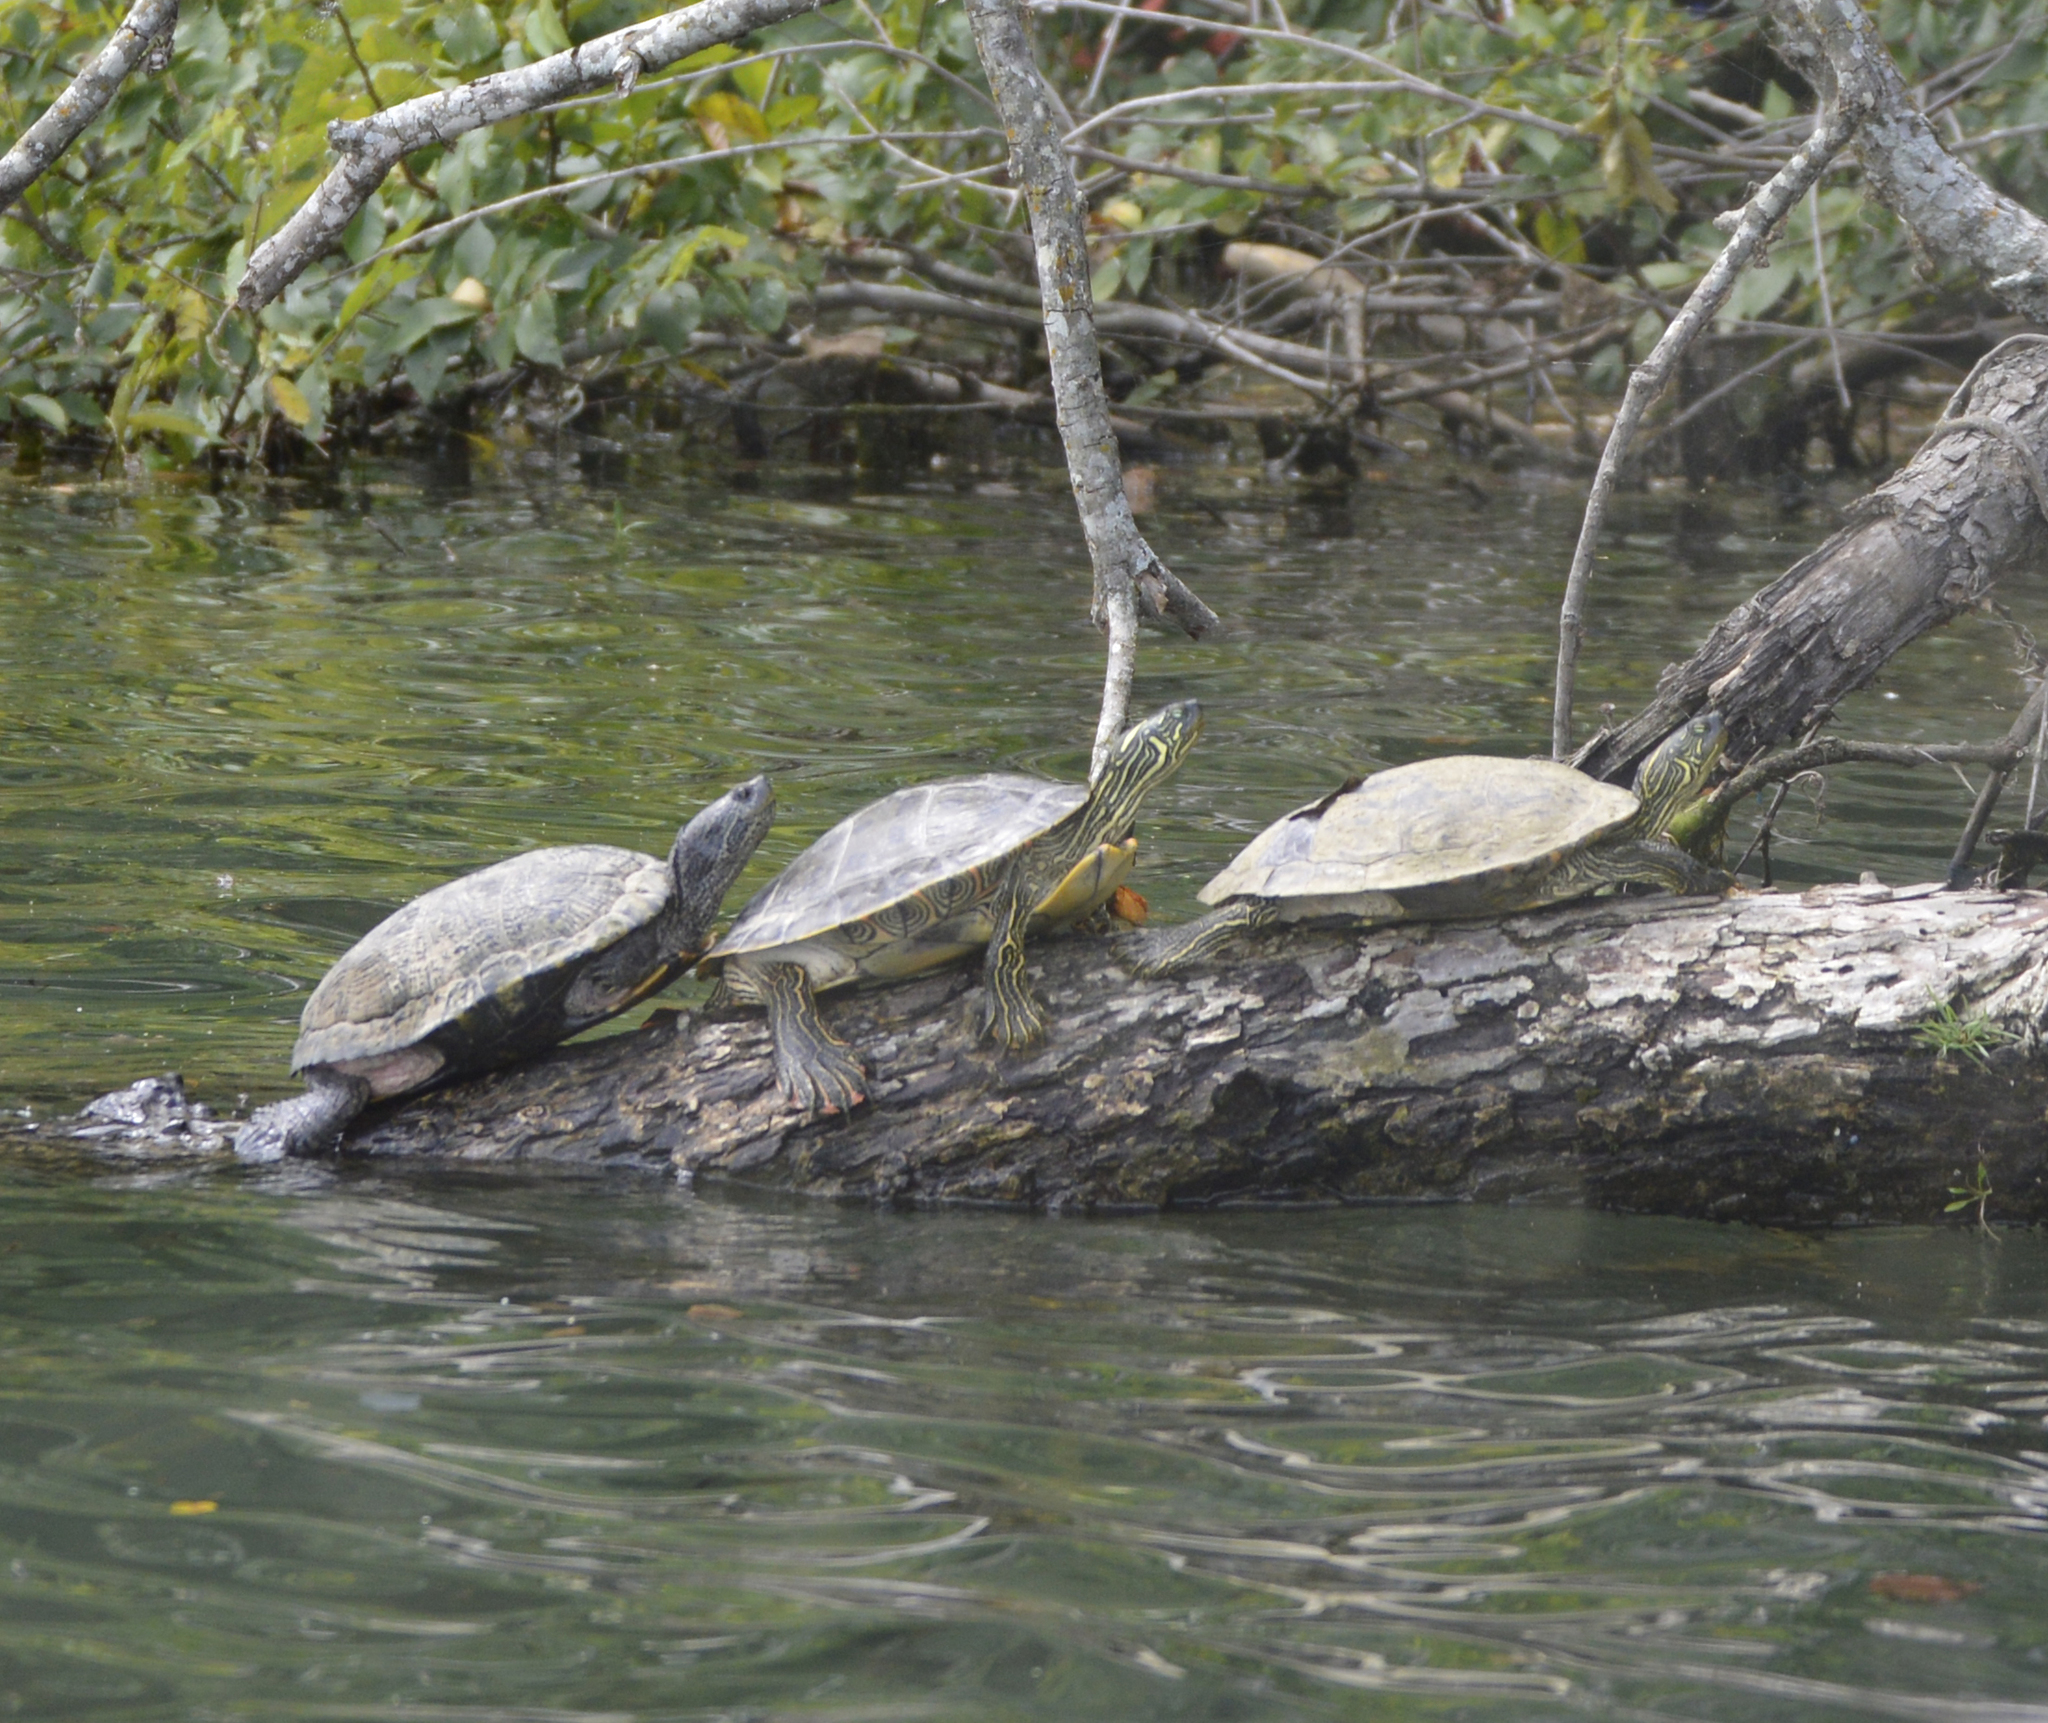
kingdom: Animalia
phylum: Chordata
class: Testudines
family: Emydidae
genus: Pseudemys
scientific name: Pseudemys texana
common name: Texas river cooter
